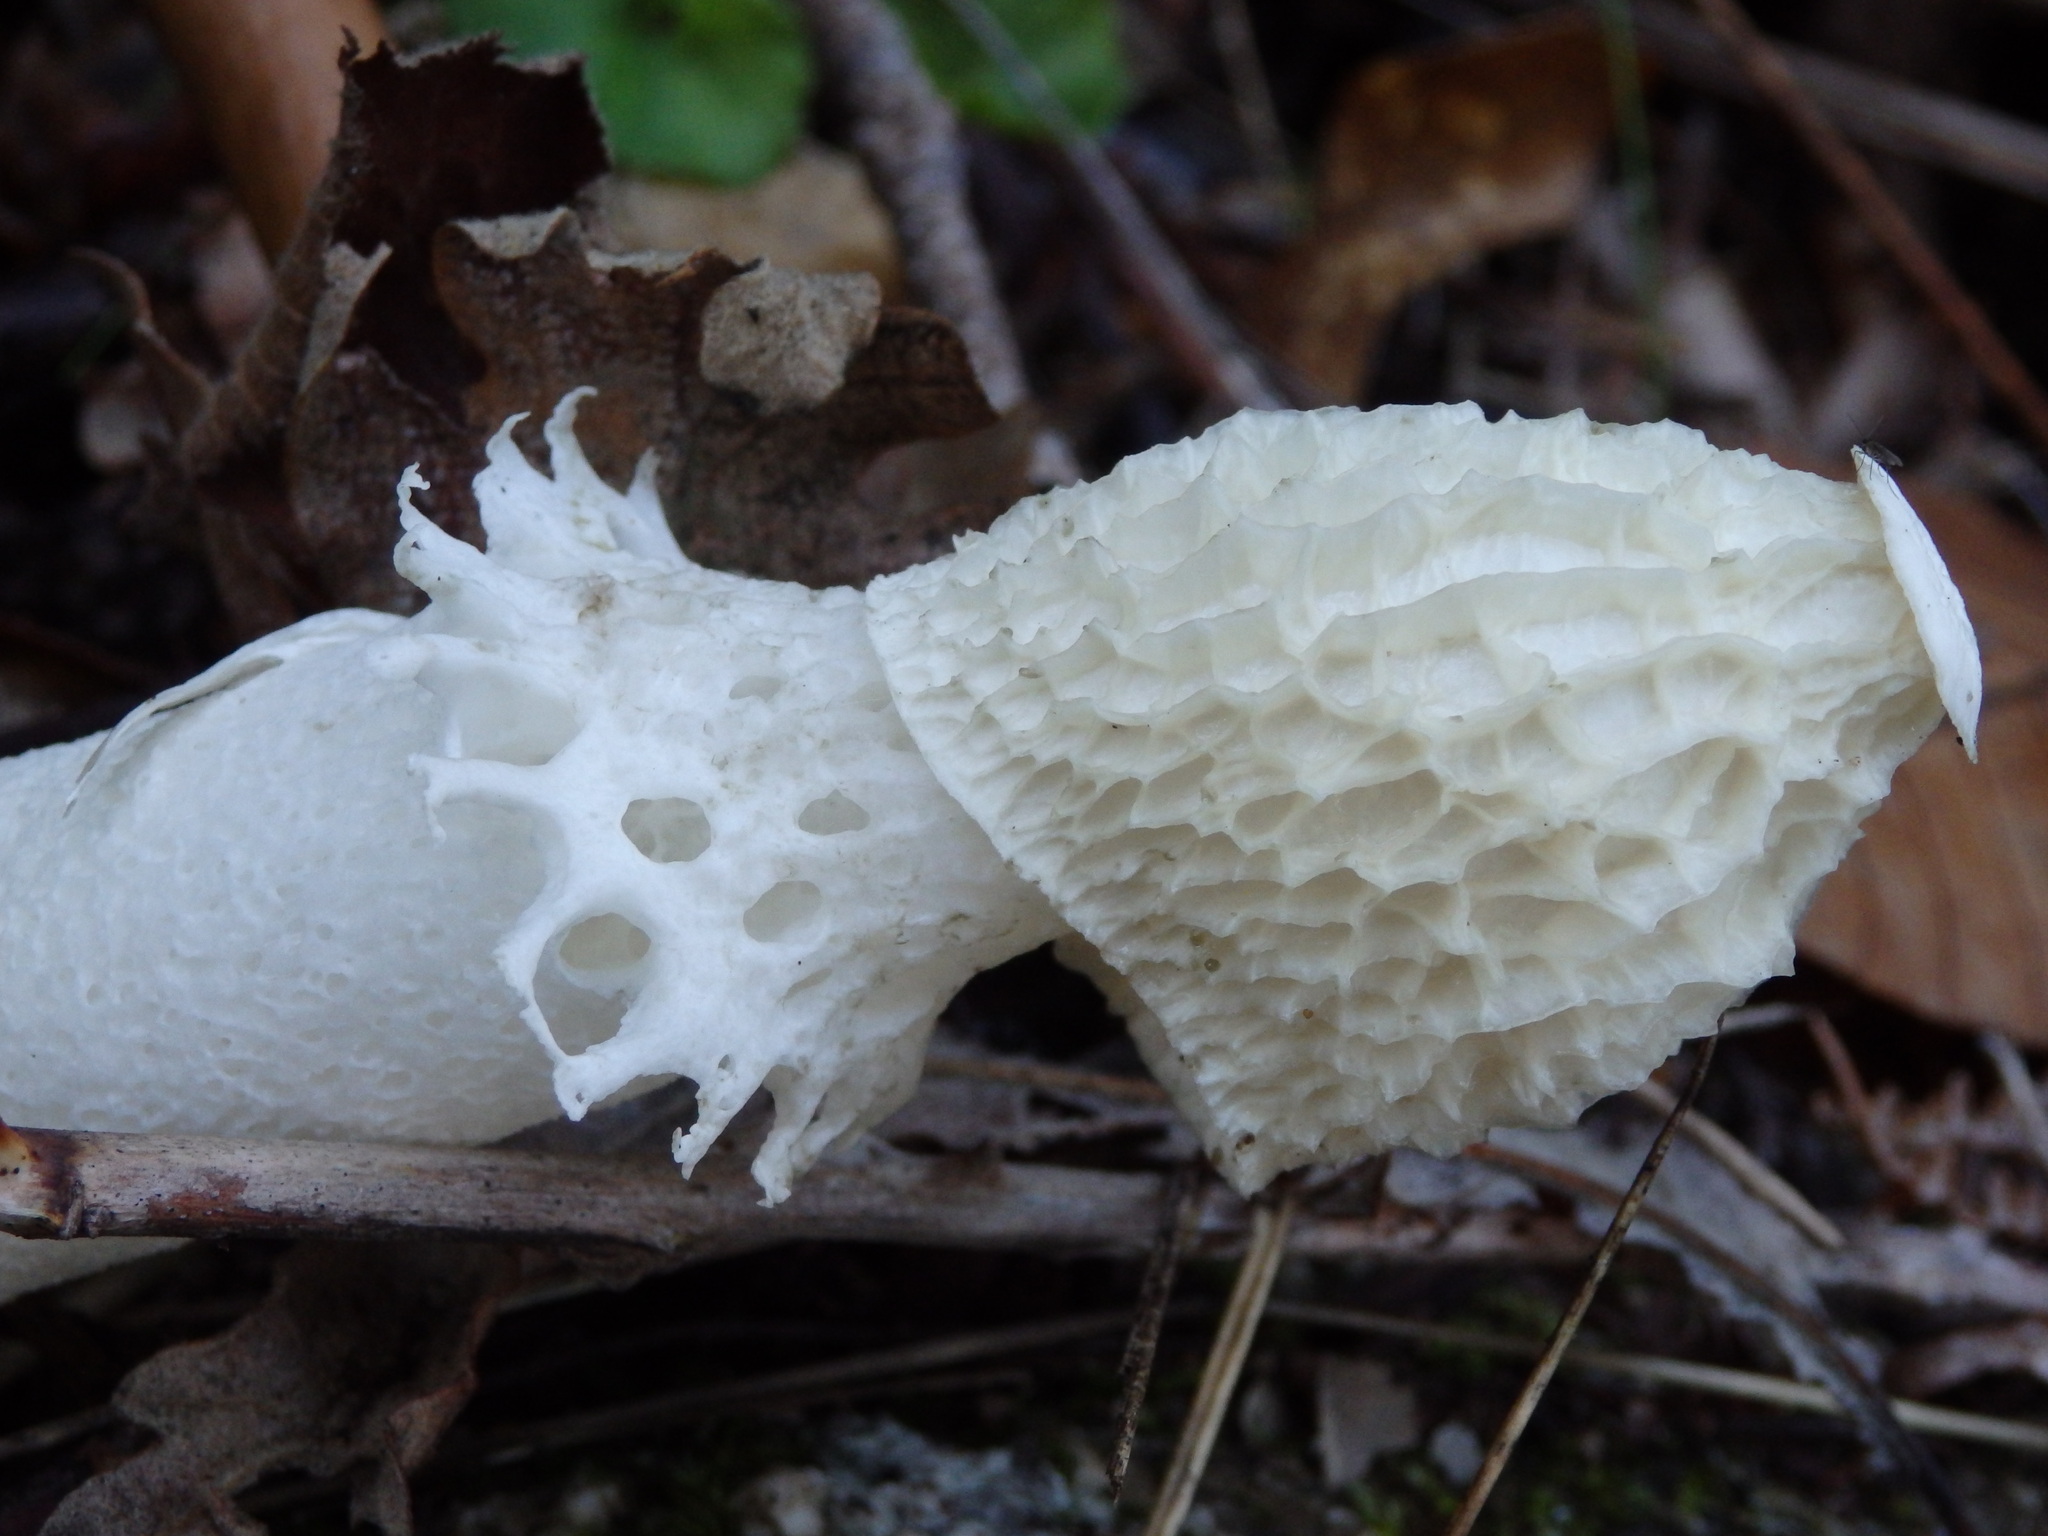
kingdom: Fungi
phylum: Basidiomycota
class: Agaricomycetes
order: Phallales
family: Phallaceae
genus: Phallus
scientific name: Phallus impudicus
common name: Common stinkhorn
